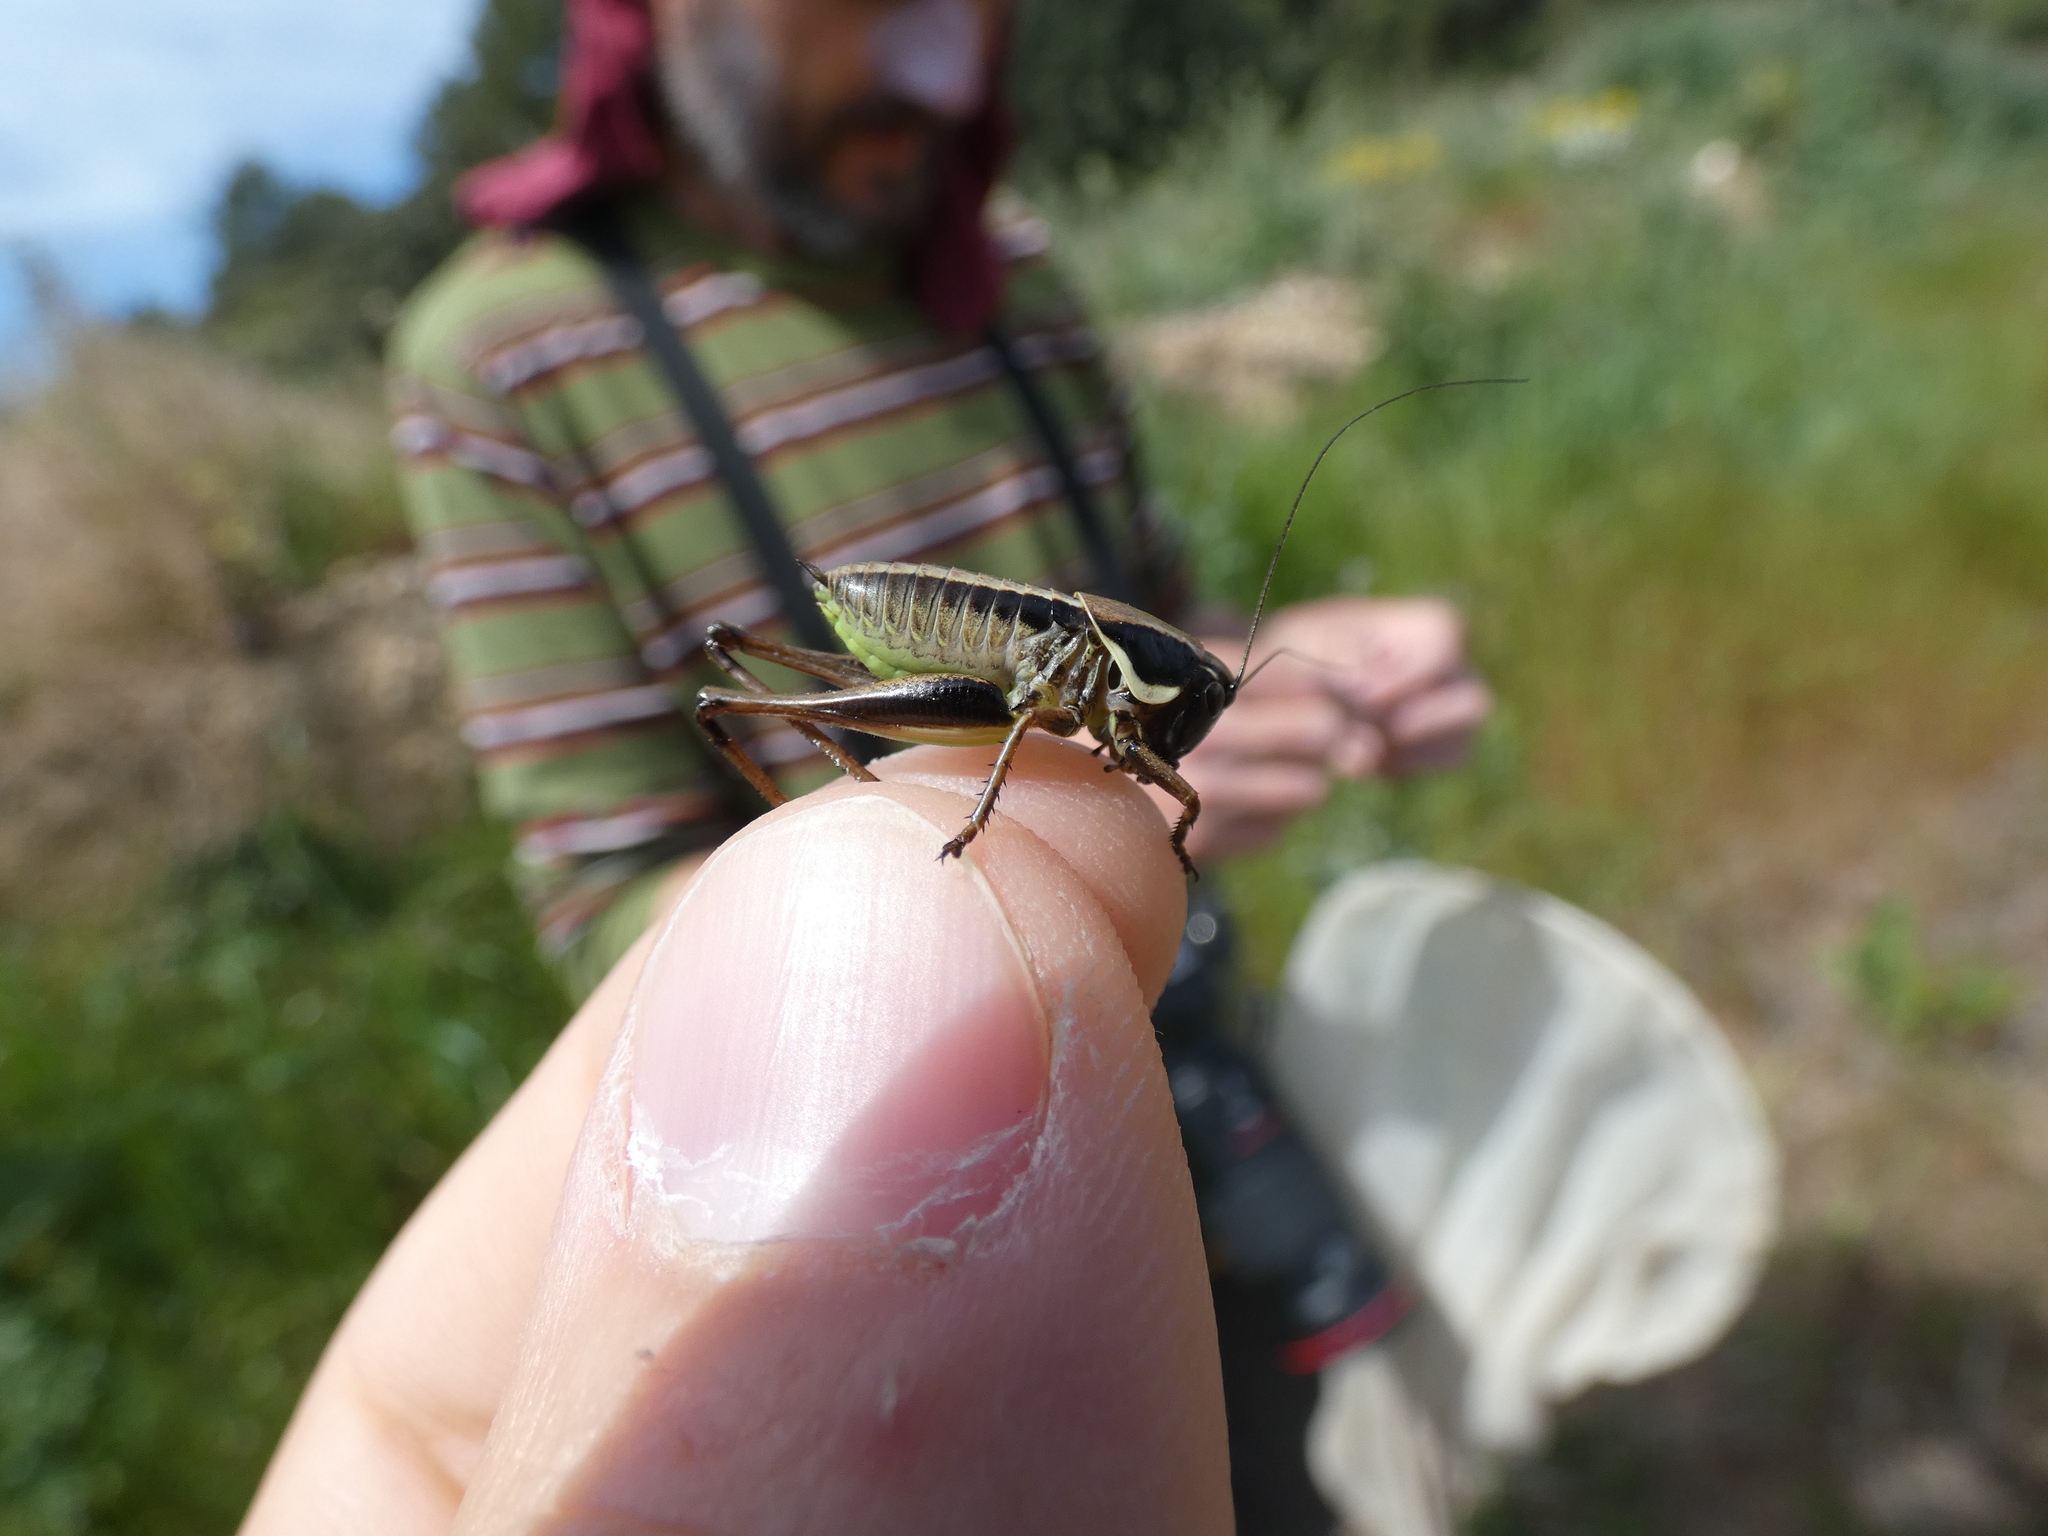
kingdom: Animalia
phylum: Arthropoda
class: Insecta
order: Orthoptera
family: Tettigoniidae
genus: Pholidoptera
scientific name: Pholidoptera femorata
